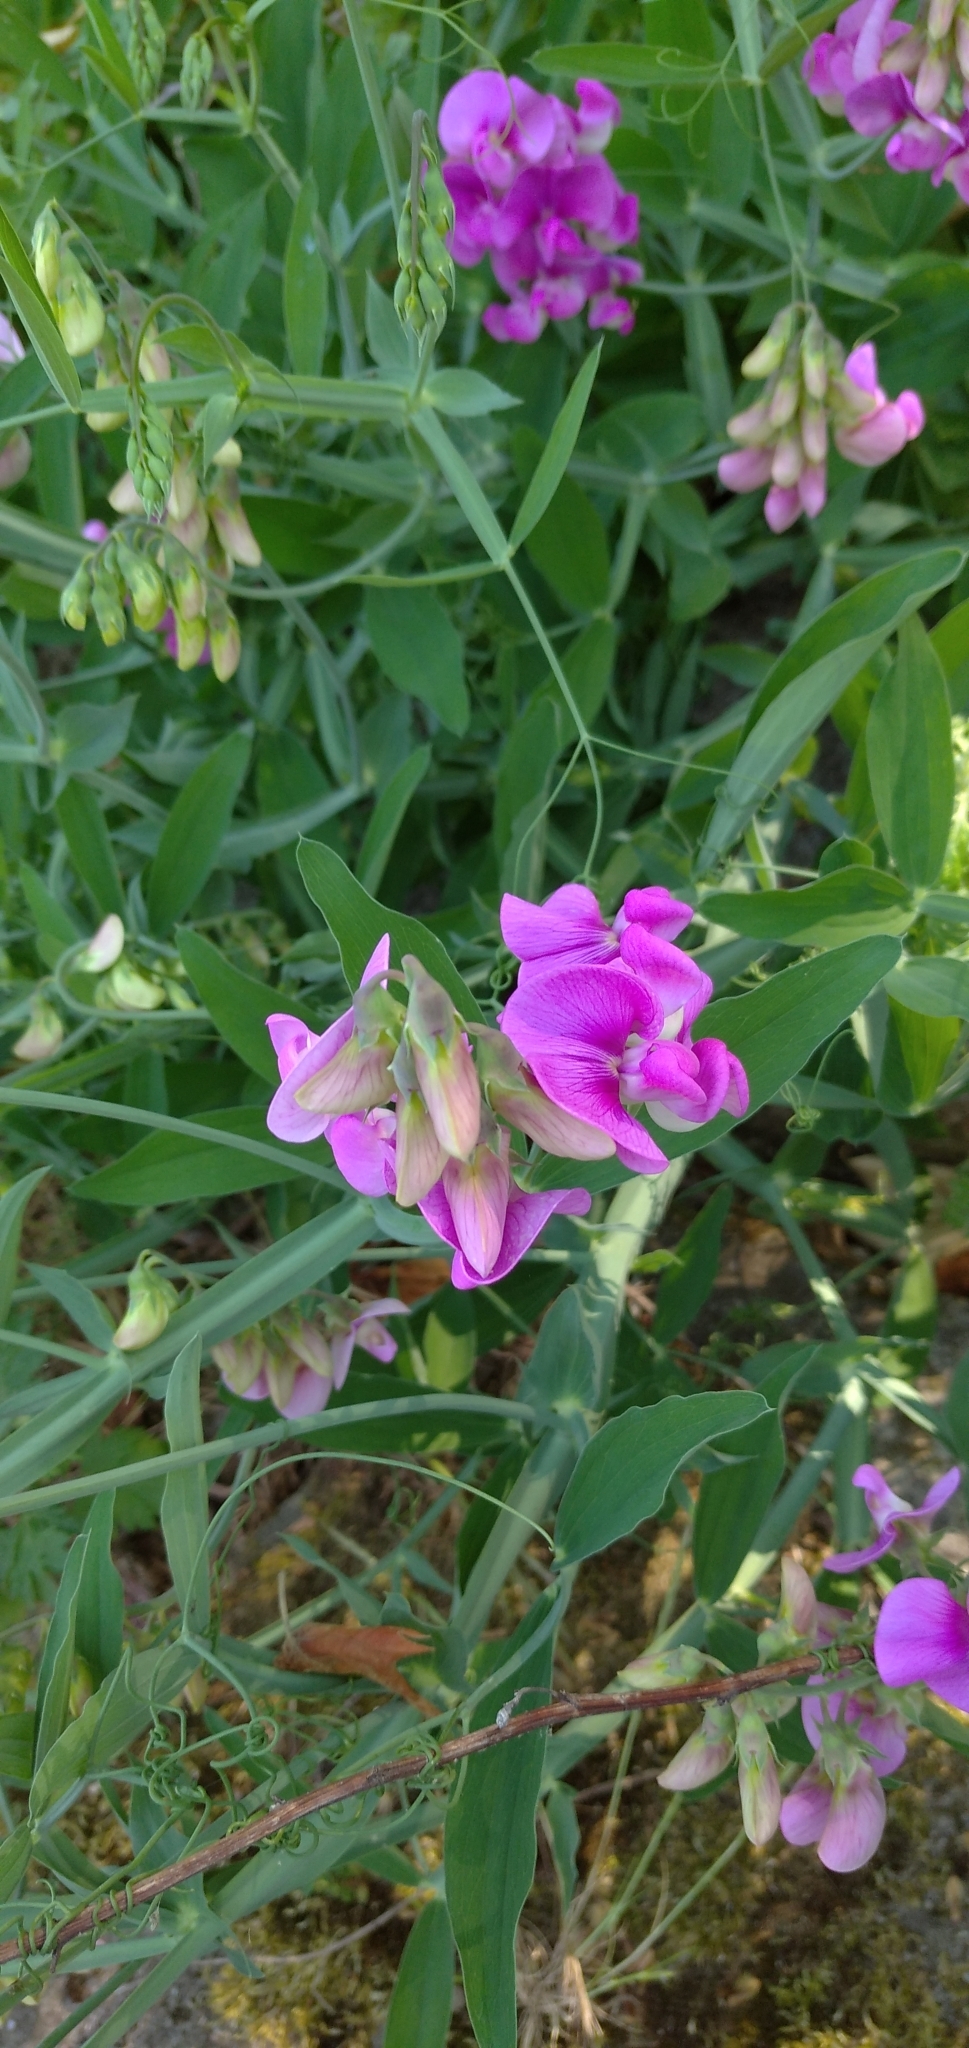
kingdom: Plantae
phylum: Tracheophyta
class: Magnoliopsida
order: Fabales
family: Fabaceae
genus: Lathyrus
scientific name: Lathyrus latifolius
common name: Perennial pea
